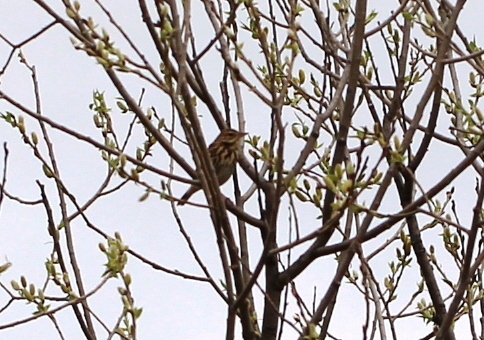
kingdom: Animalia
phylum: Chordata
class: Aves
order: Passeriformes
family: Motacillidae
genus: Anthus
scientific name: Anthus trivialis
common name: Tree pipit
